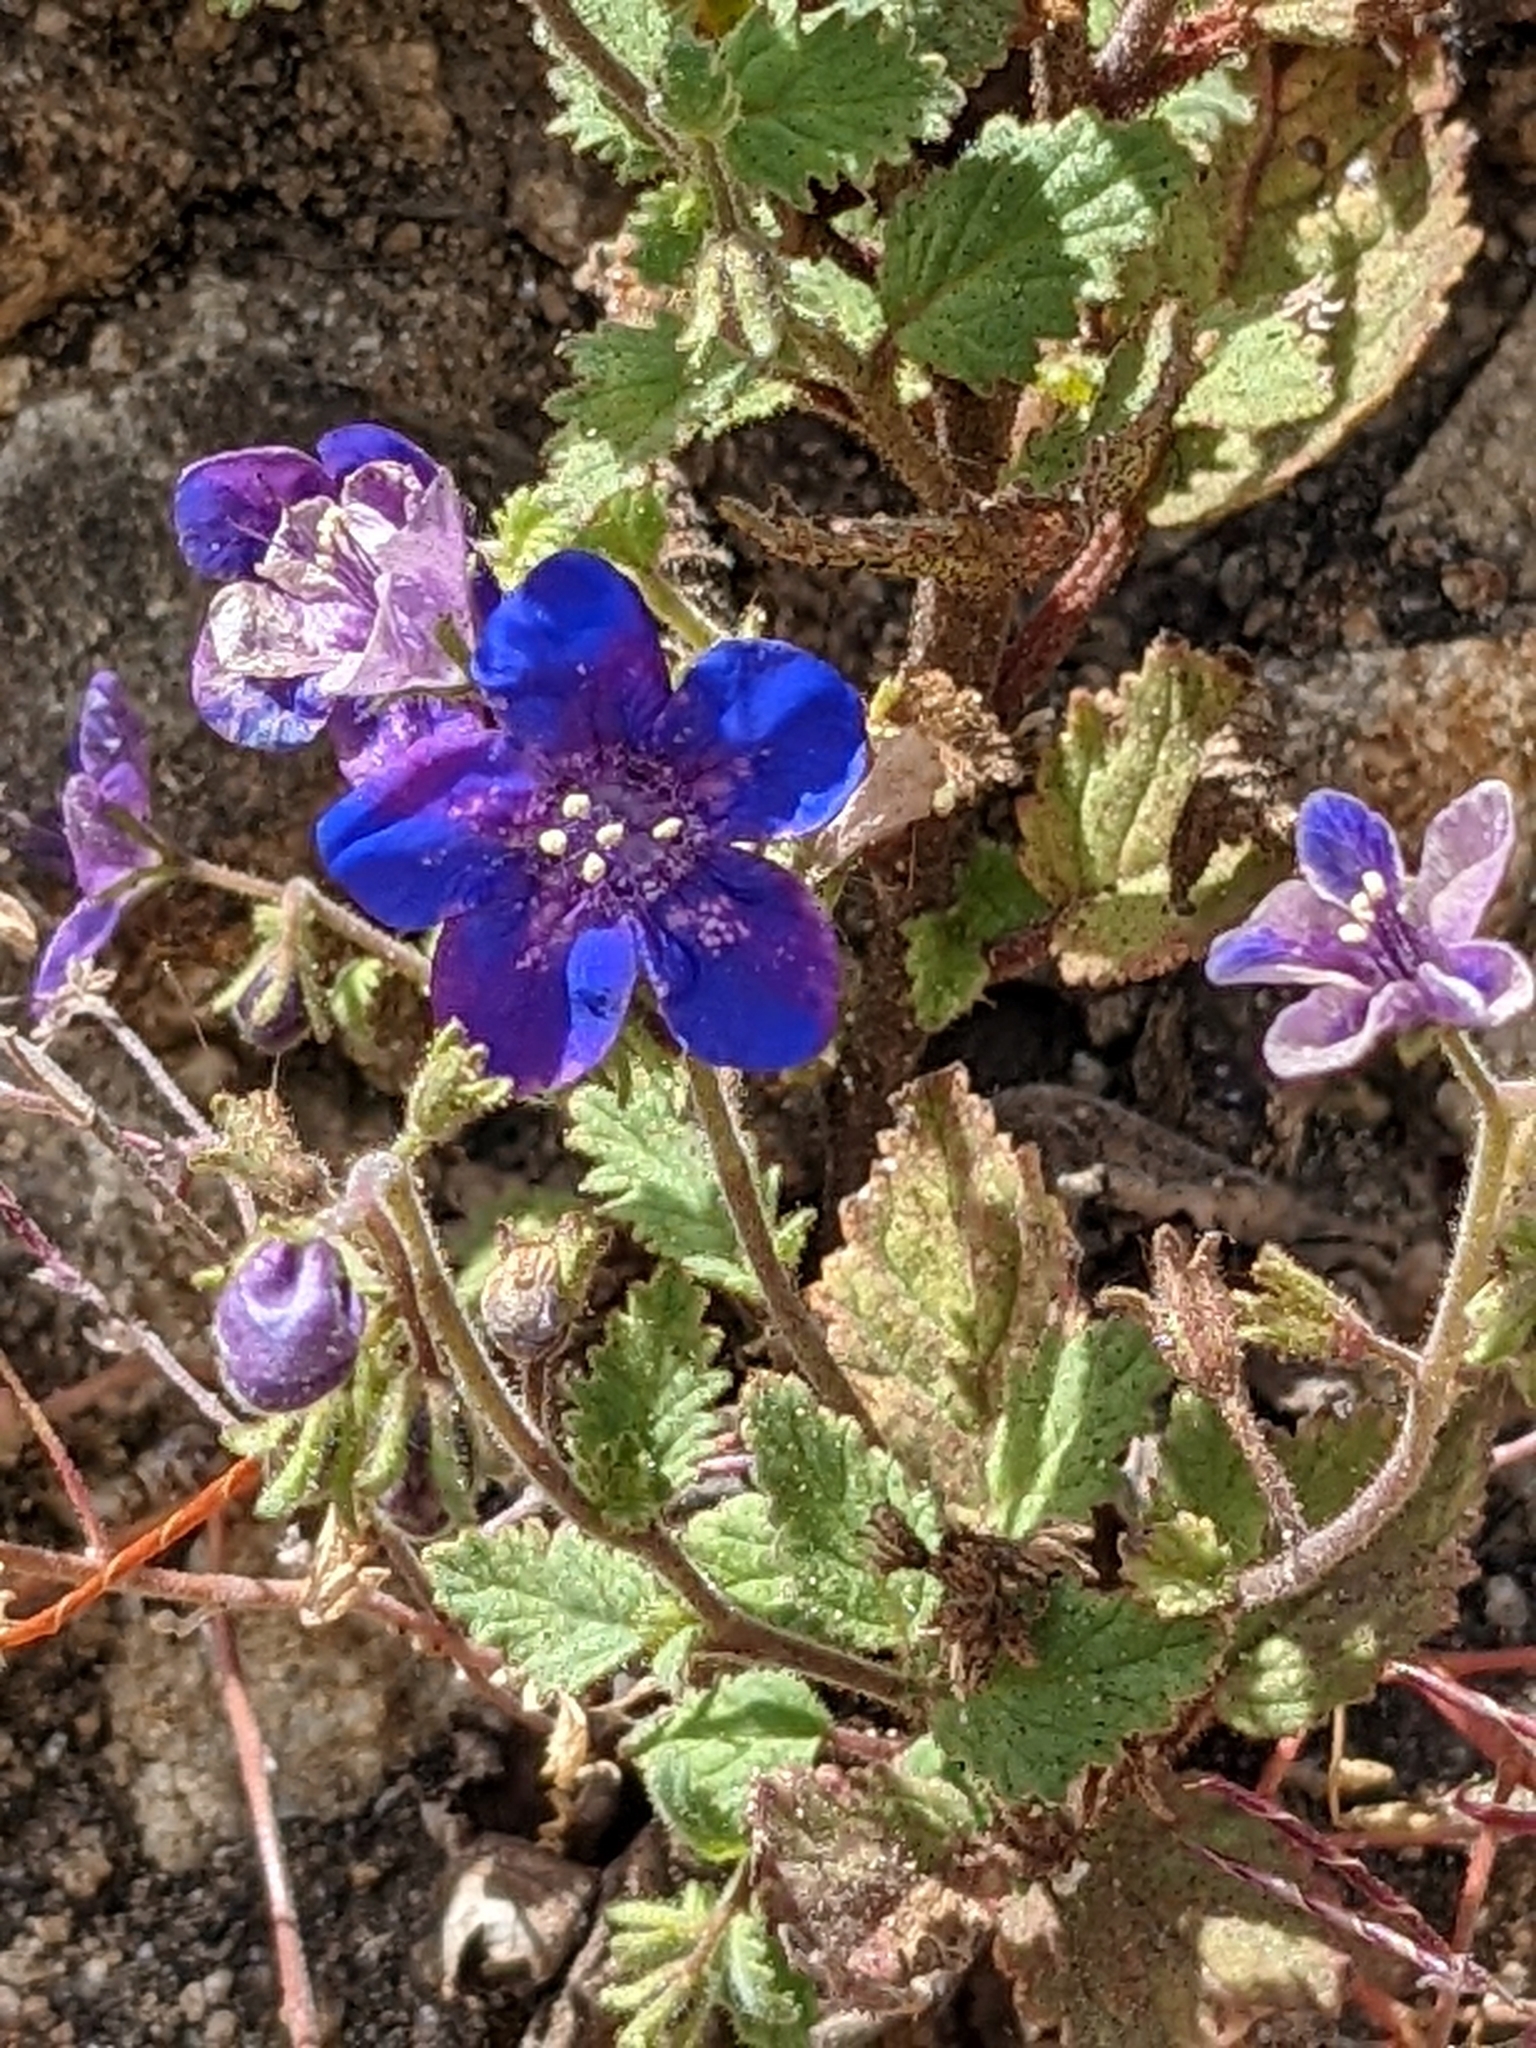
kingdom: Plantae
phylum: Tracheophyta
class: Magnoliopsida
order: Boraginales
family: Hydrophyllaceae
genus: Phacelia
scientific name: Phacelia viscida
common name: Sticky phacelia
